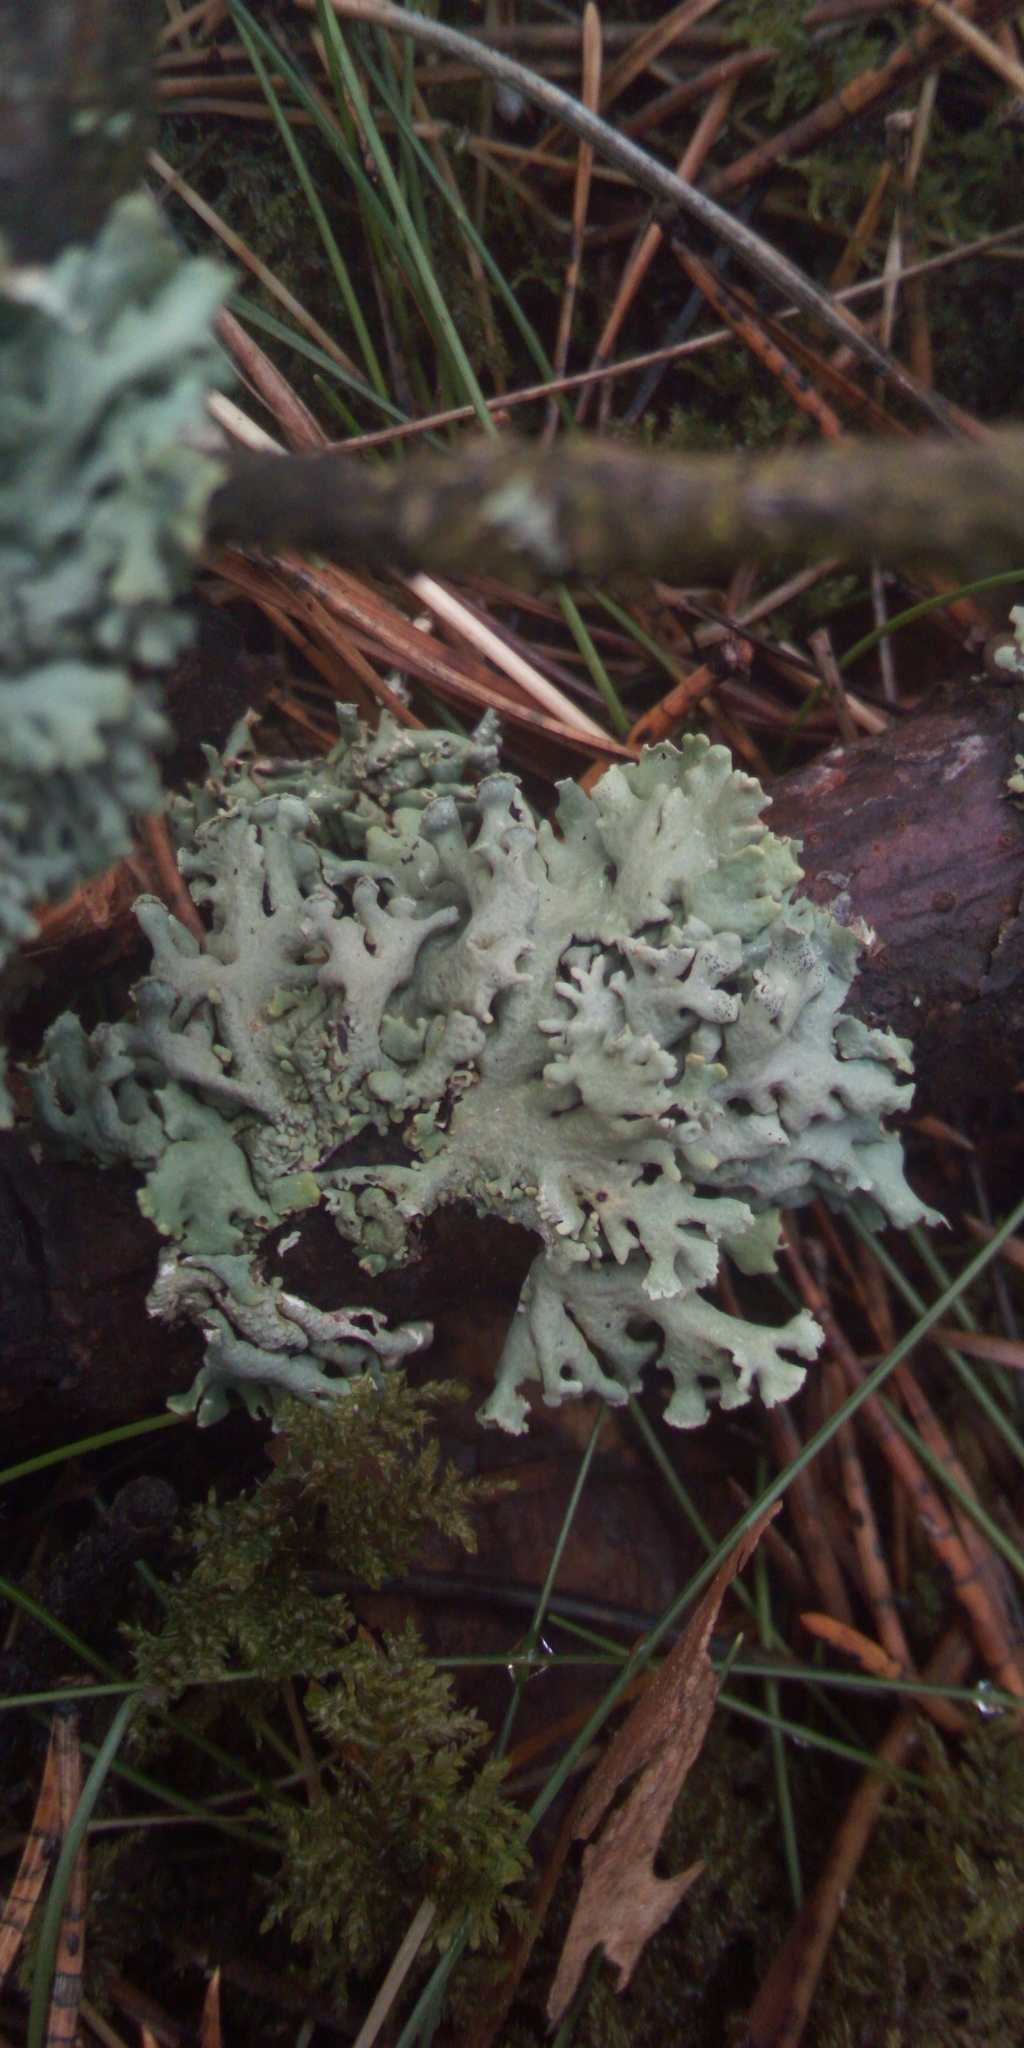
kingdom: Fungi
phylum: Ascomycota
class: Lecanoromycetes
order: Lecanorales
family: Parmeliaceae
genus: Hypogymnia
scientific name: Hypogymnia physodes
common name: Dark crottle
